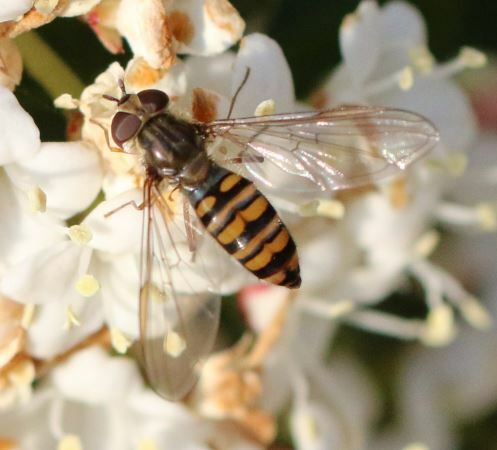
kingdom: Animalia
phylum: Arthropoda
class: Insecta
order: Diptera
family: Syrphidae
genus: Episyrphus
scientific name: Episyrphus balteatus
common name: Marmalade hoverfly
